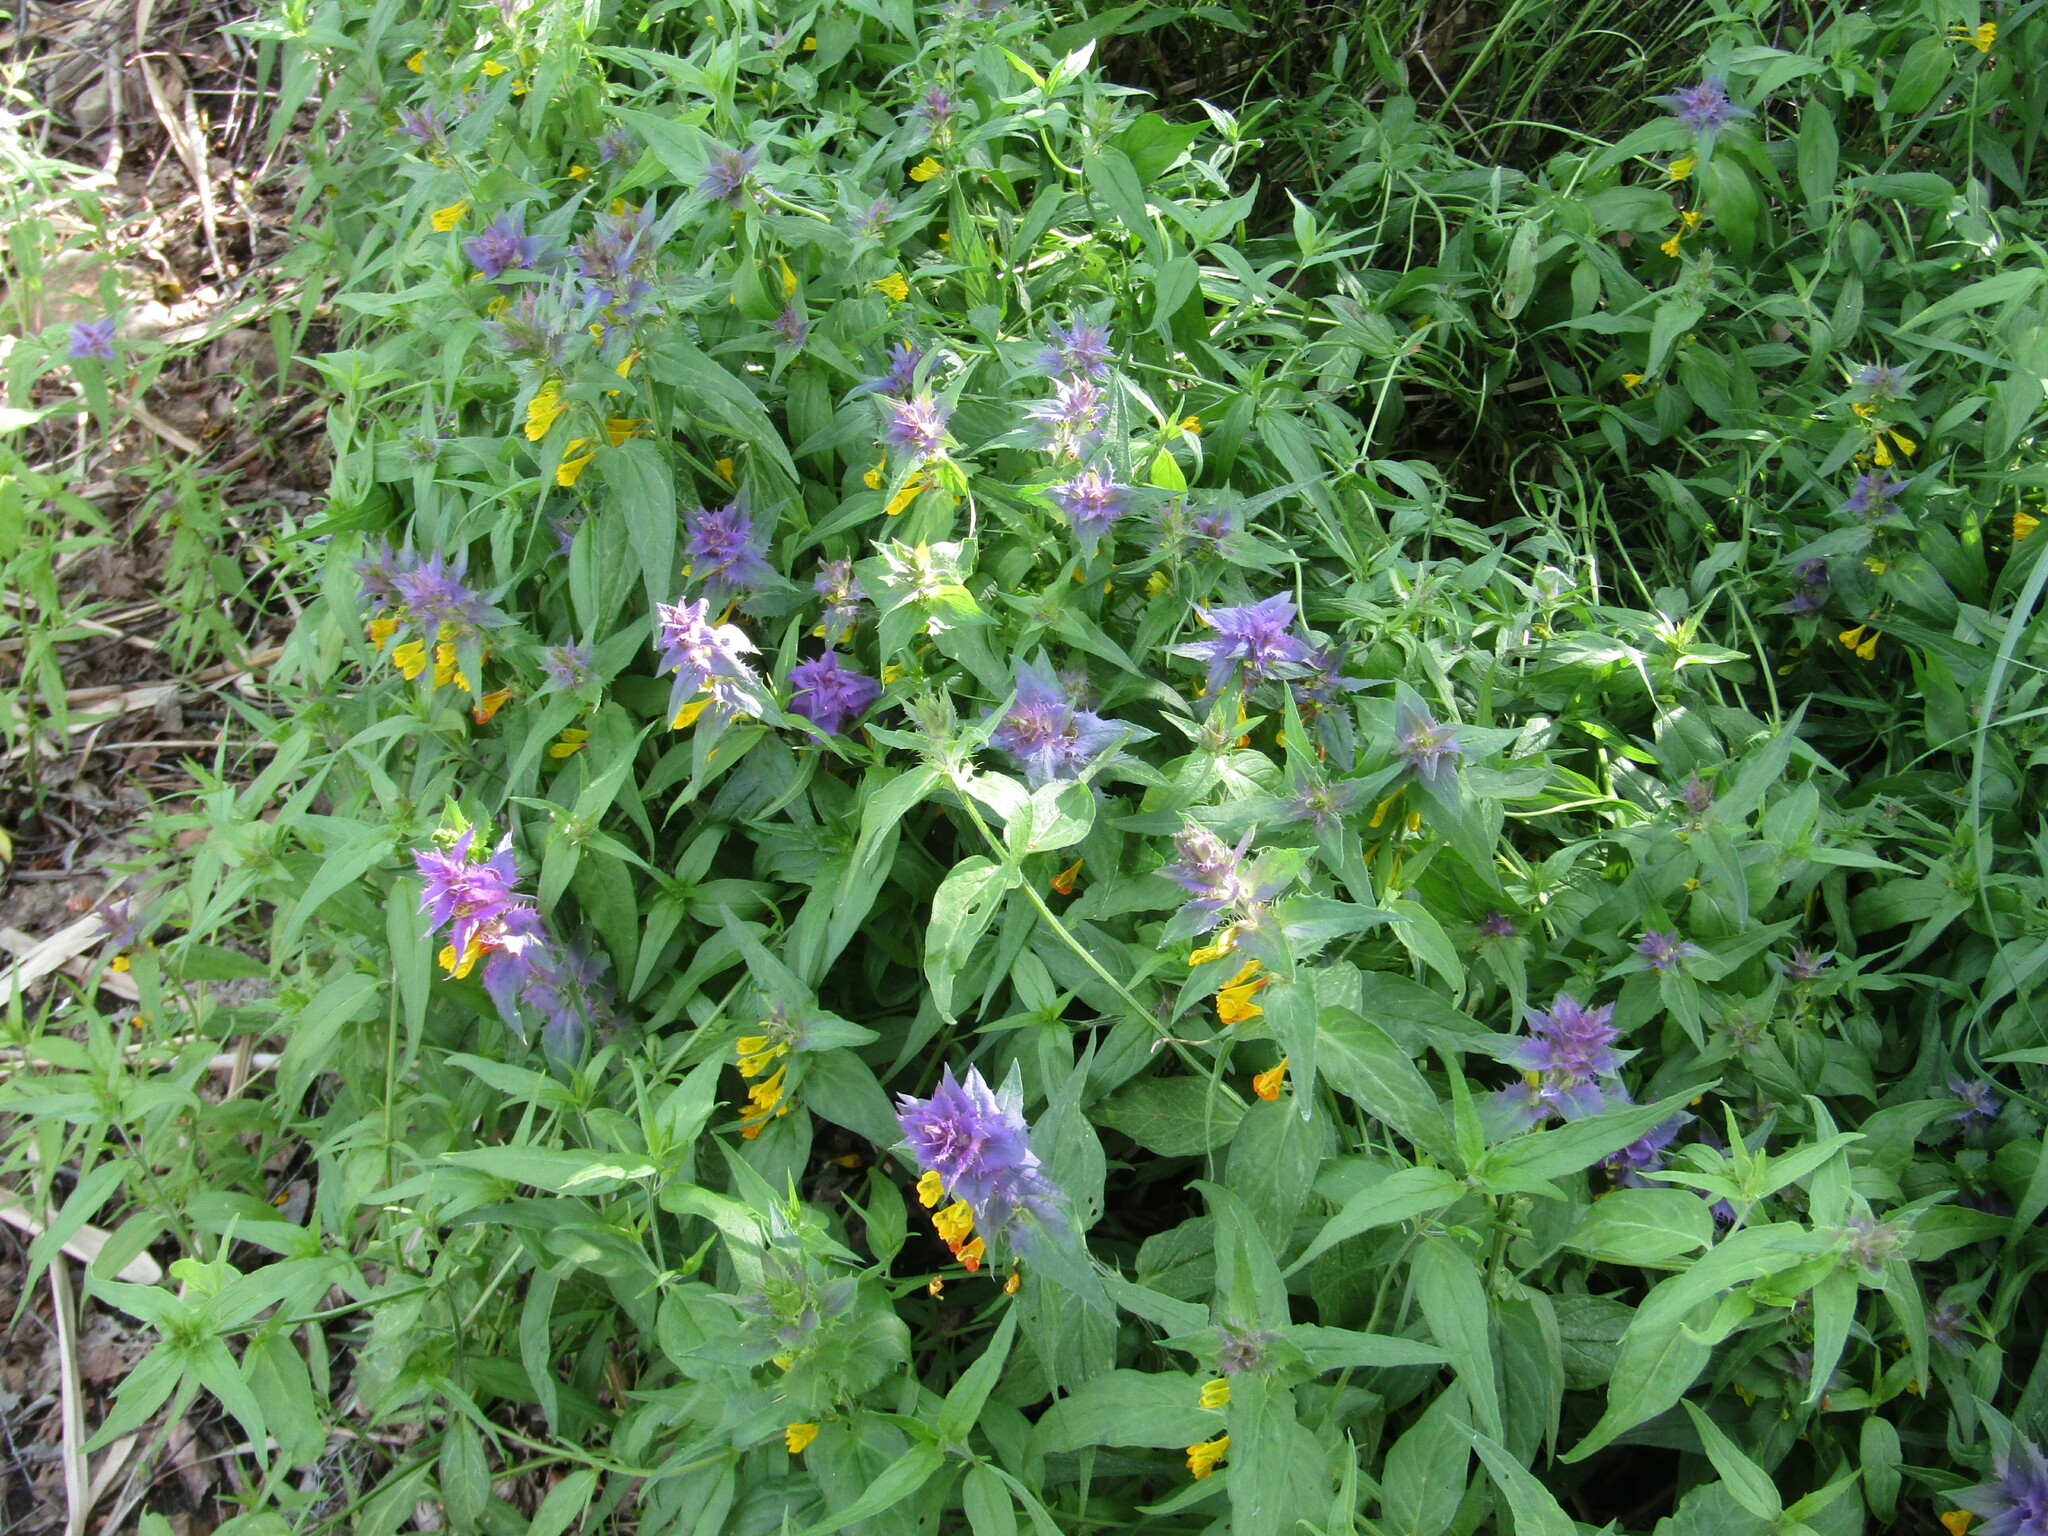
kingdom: Plantae
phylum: Tracheophyta
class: Magnoliopsida
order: Lamiales
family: Orobanchaceae
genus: Melampyrum
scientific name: Melampyrum nemorosum
